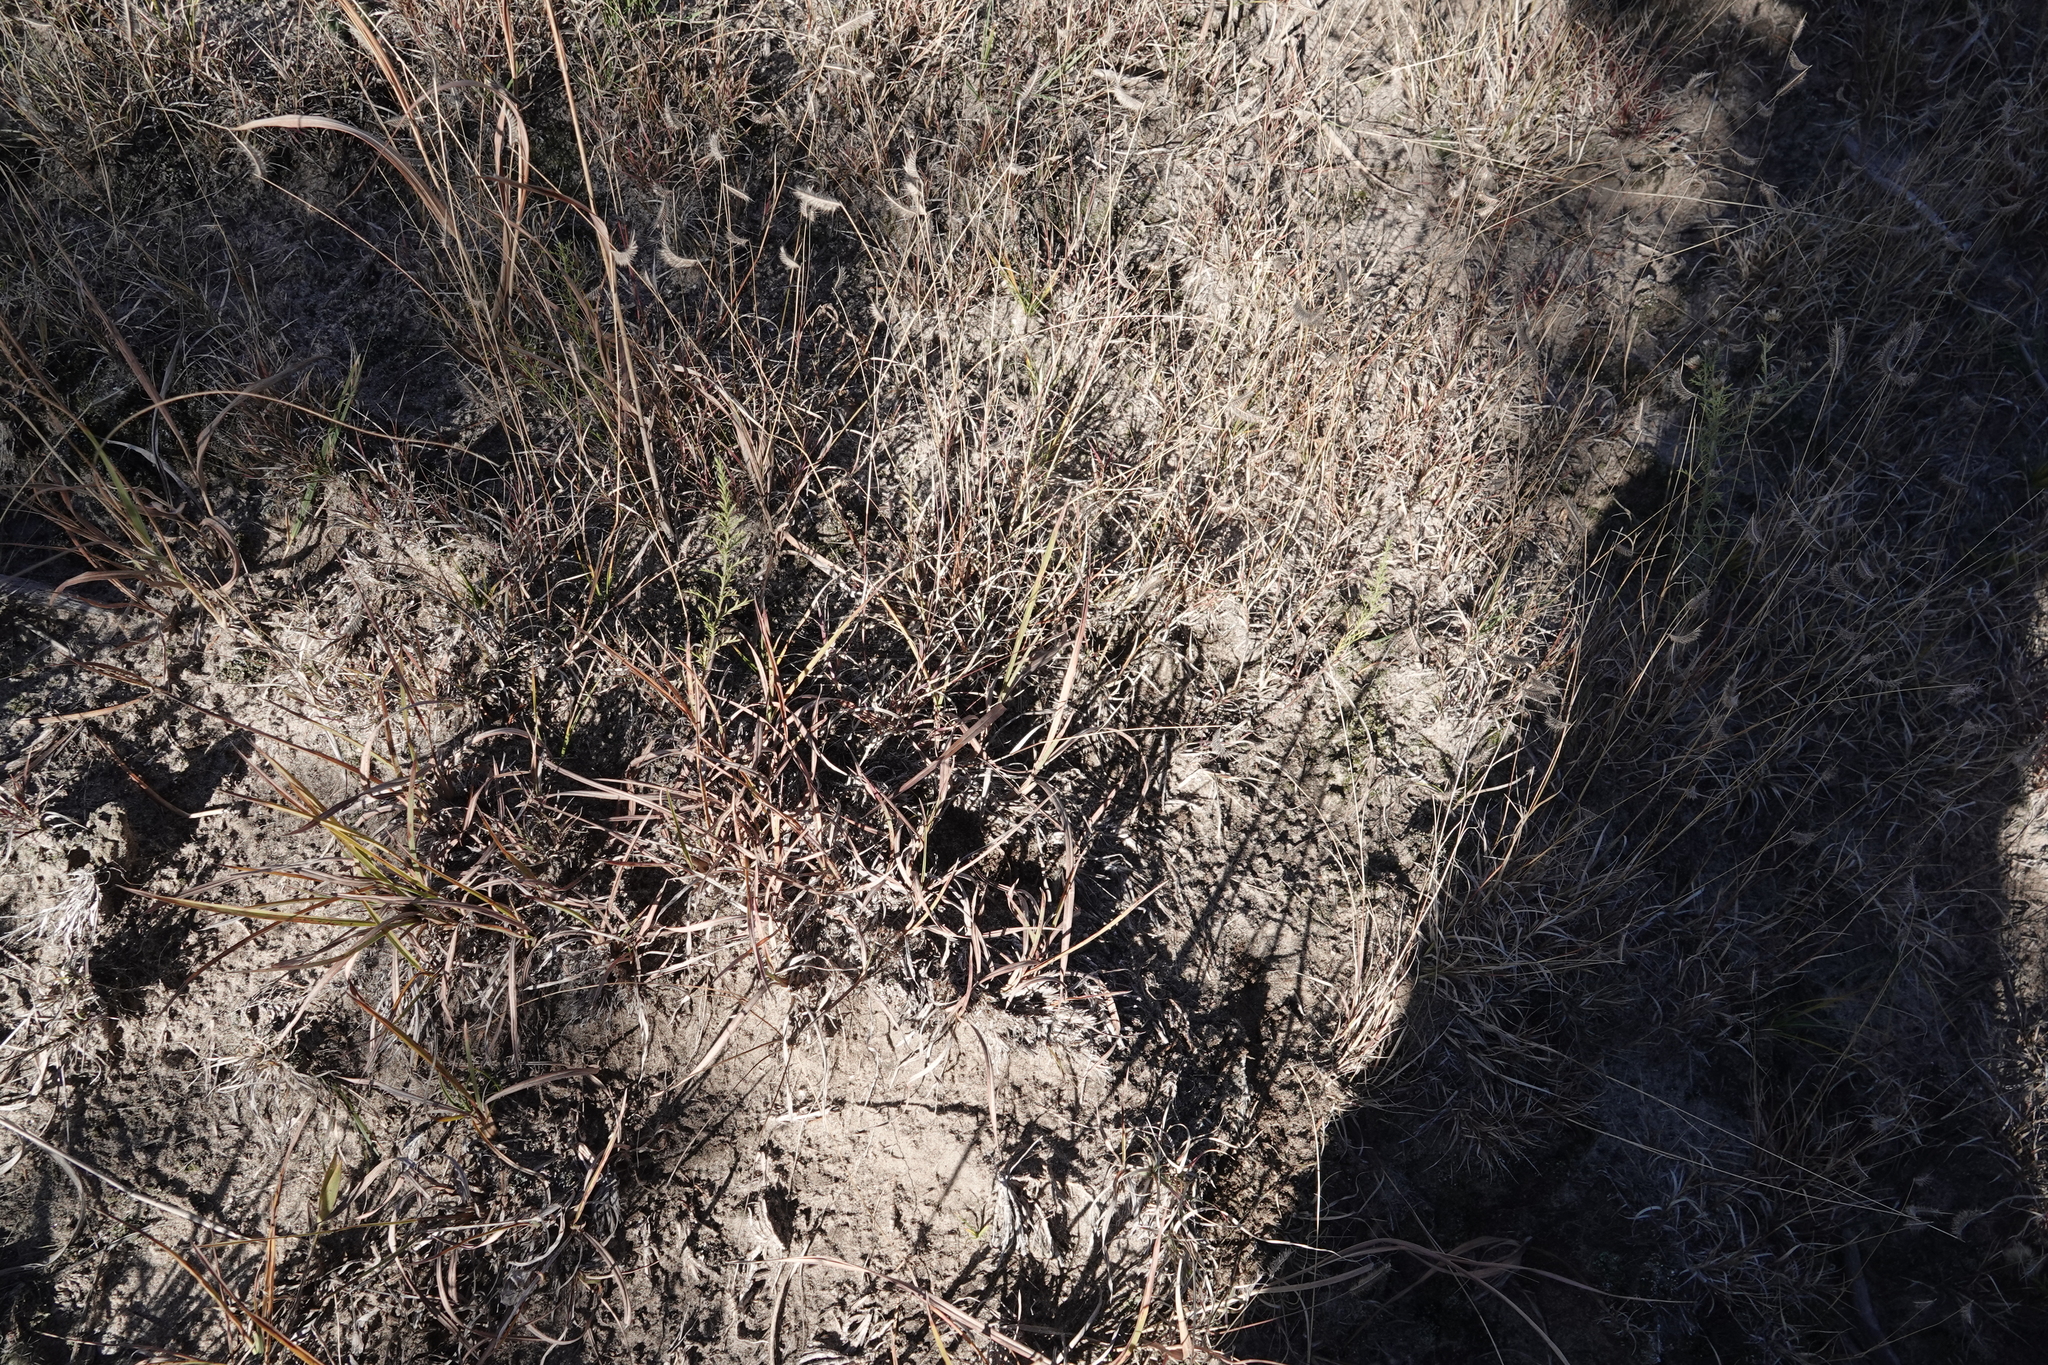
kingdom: Plantae
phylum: Tracheophyta
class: Liliopsida
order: Poales
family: Poaceae
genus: Bouteloua
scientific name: Bouteloua hirsuta
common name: Hairy grama
